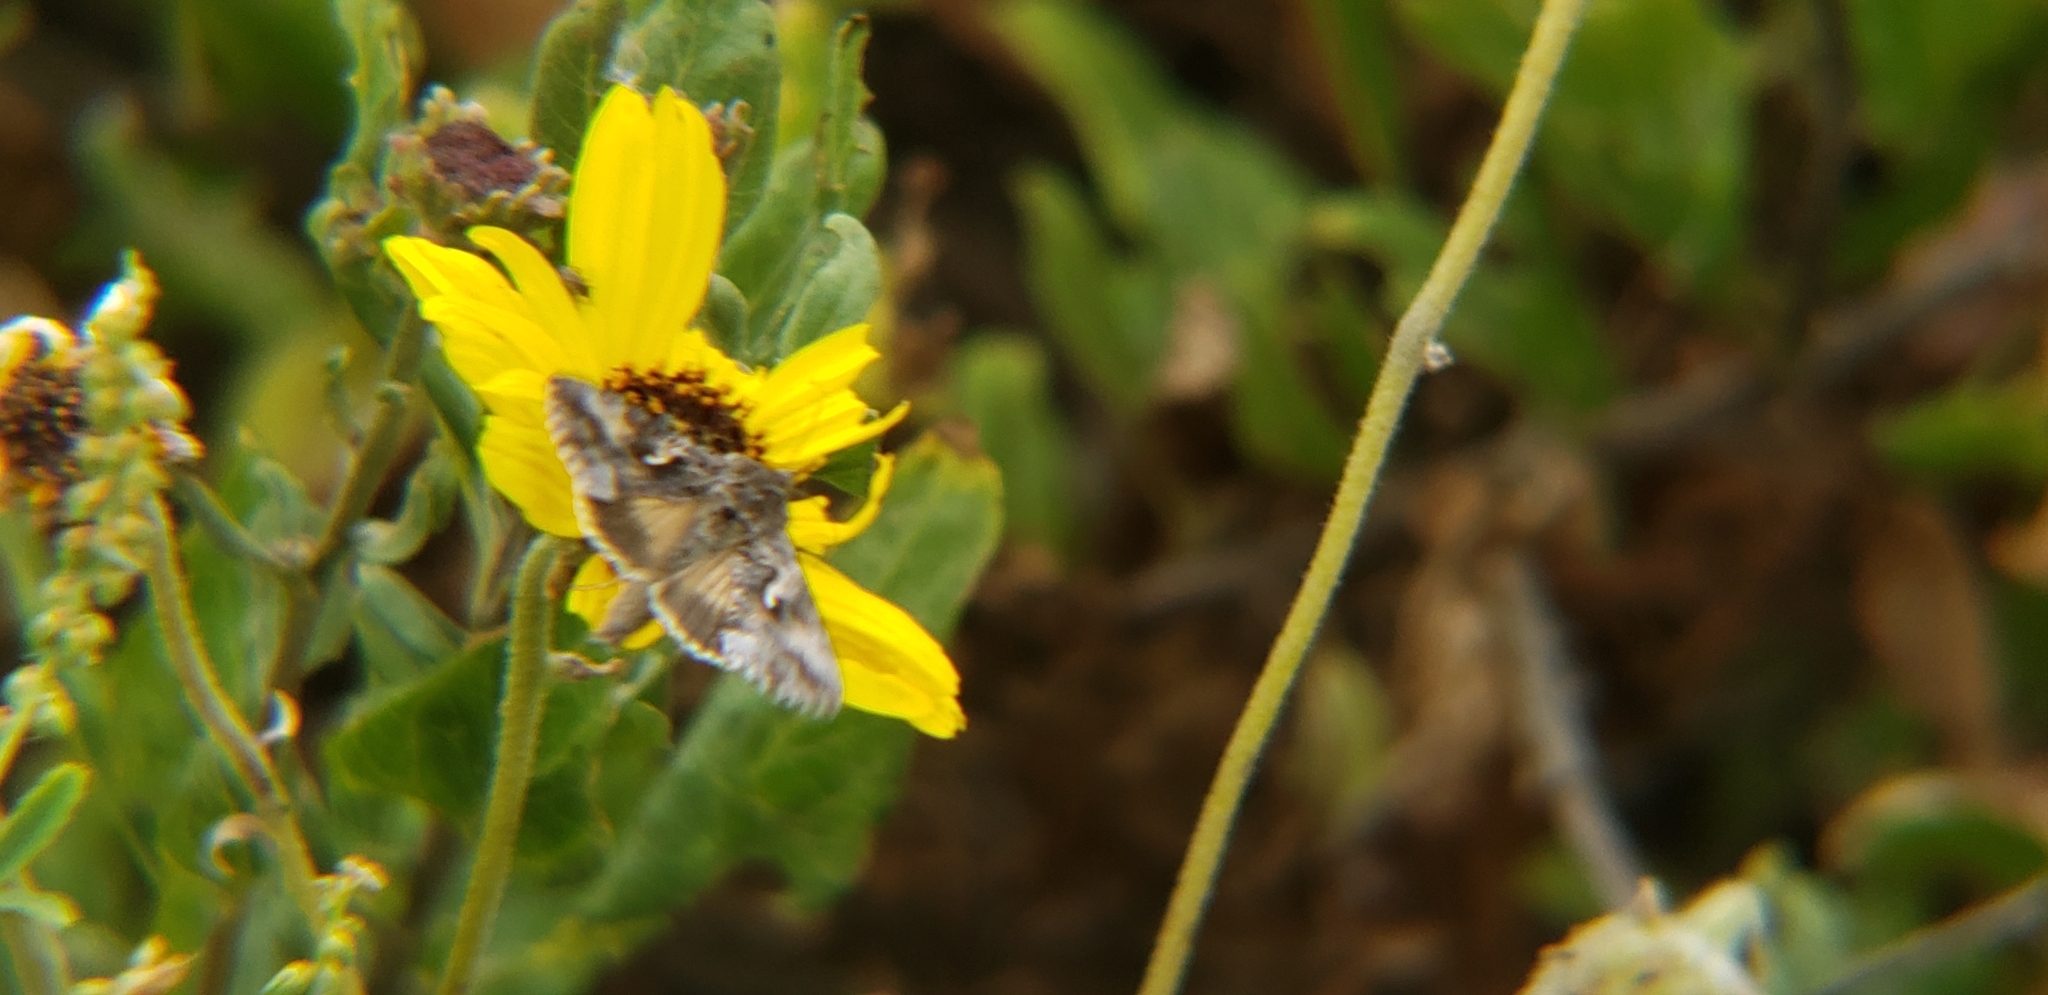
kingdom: Animalia
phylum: Arthropoda
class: Insecta
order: Lepidoptera
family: Noctuidae
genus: Autographa
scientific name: Autographa californica
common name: Alfalfa looper
